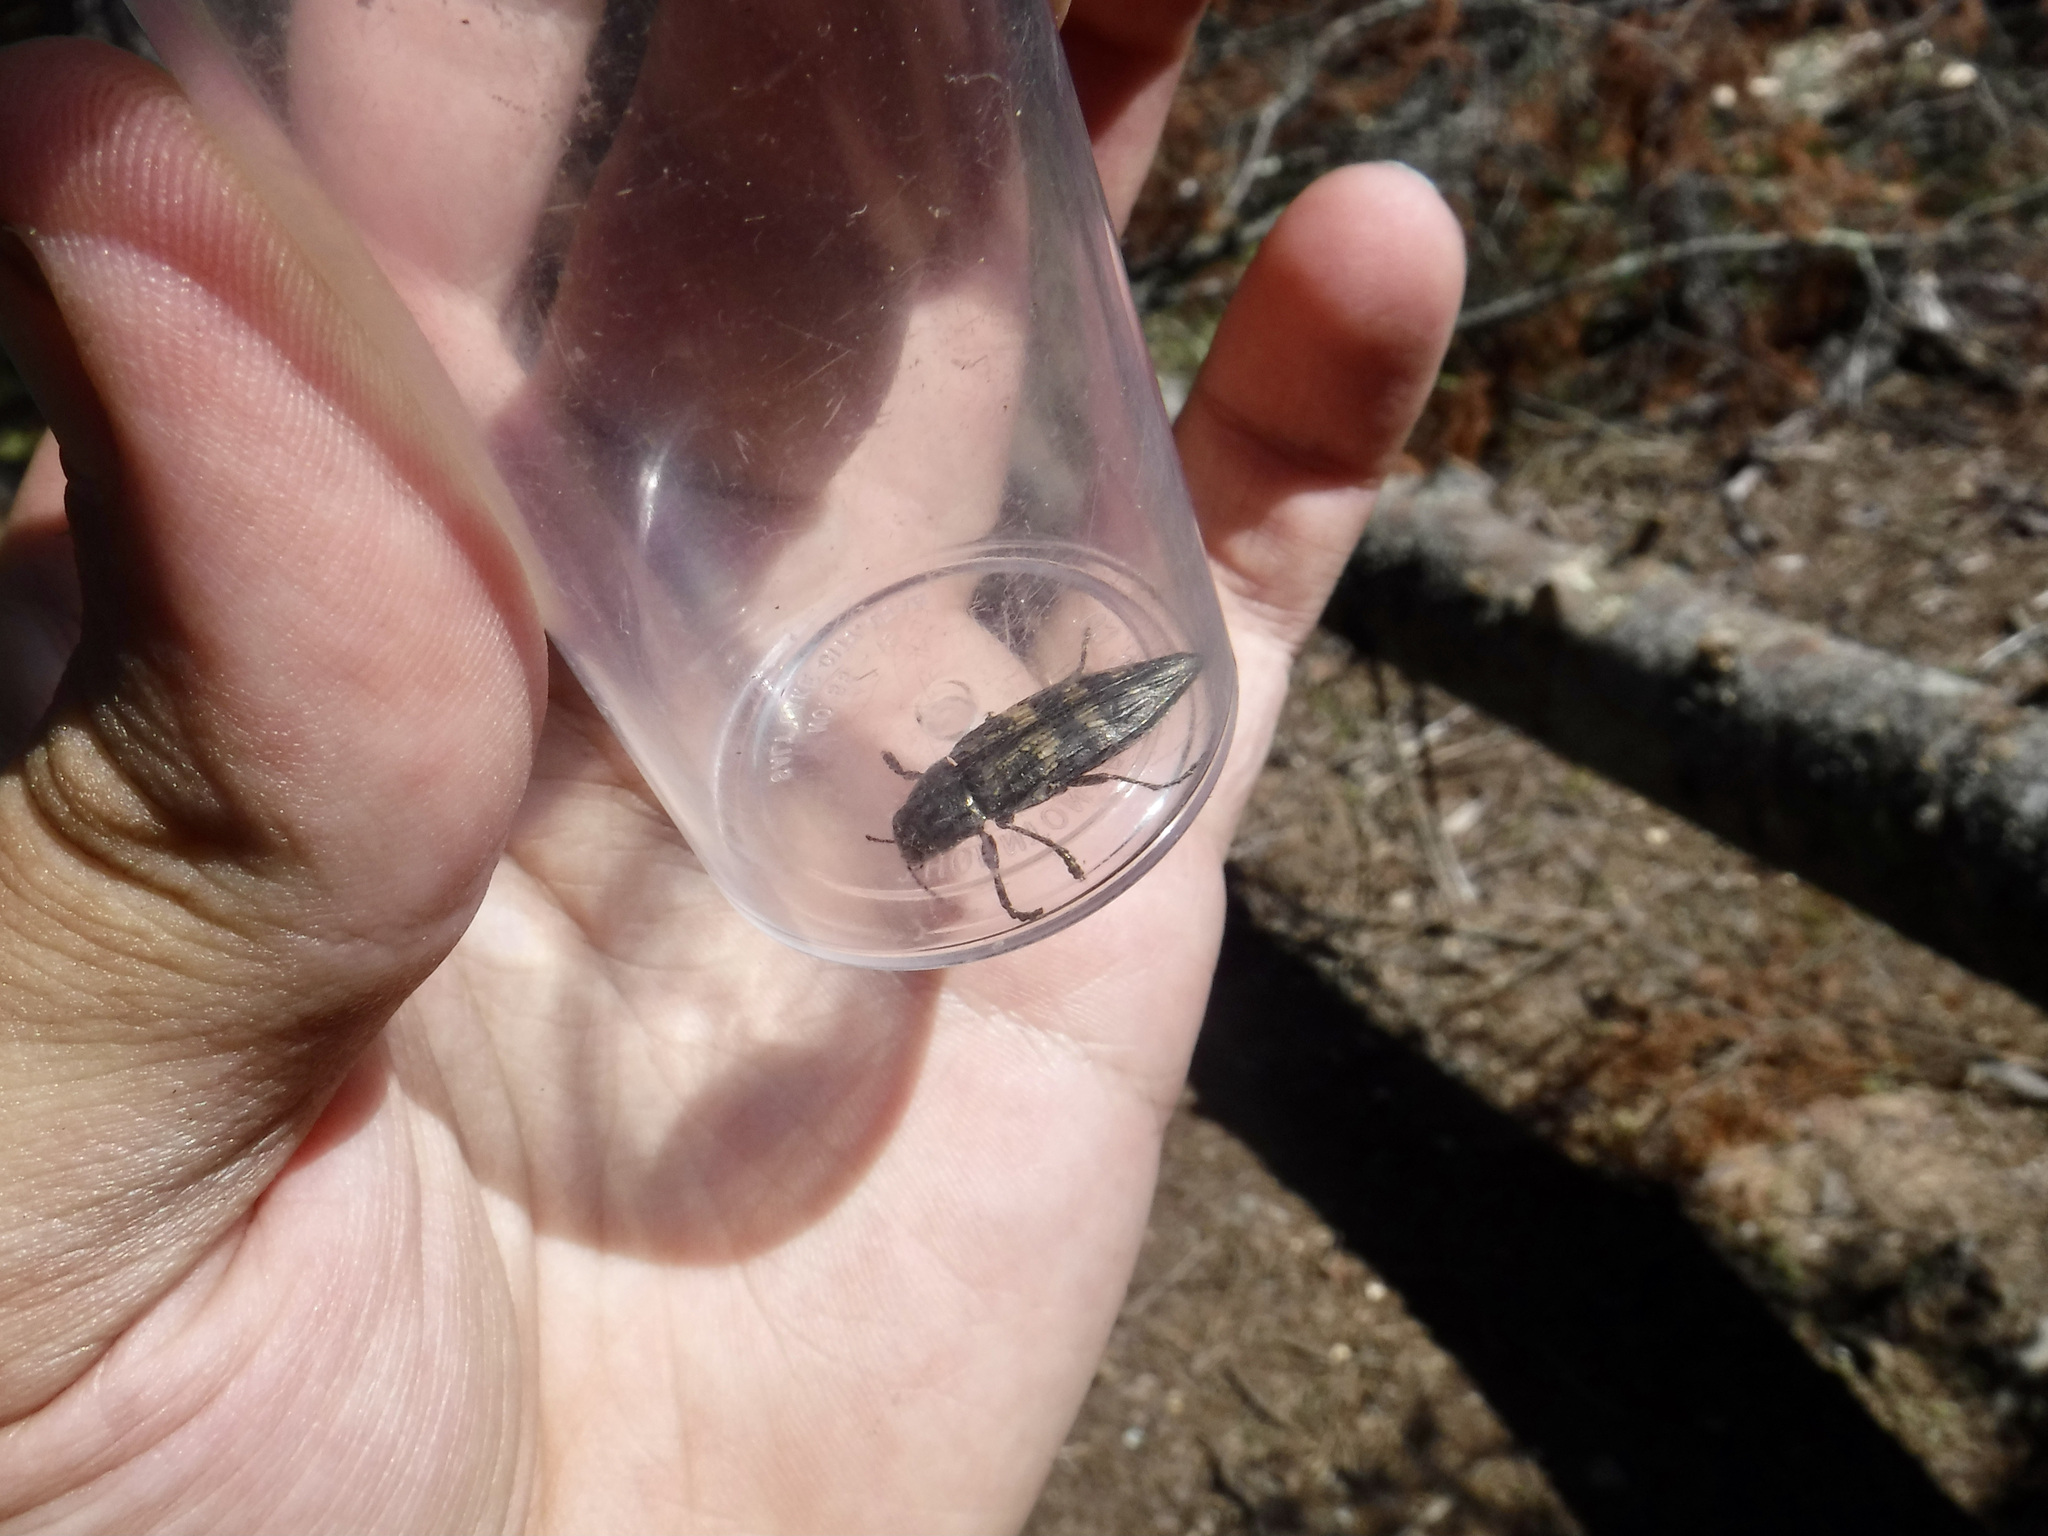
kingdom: Animalia
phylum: Arthropoda
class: Insecta
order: Coleoptera
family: Buprestidae
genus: Buprestis
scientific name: Buprestis consularis
